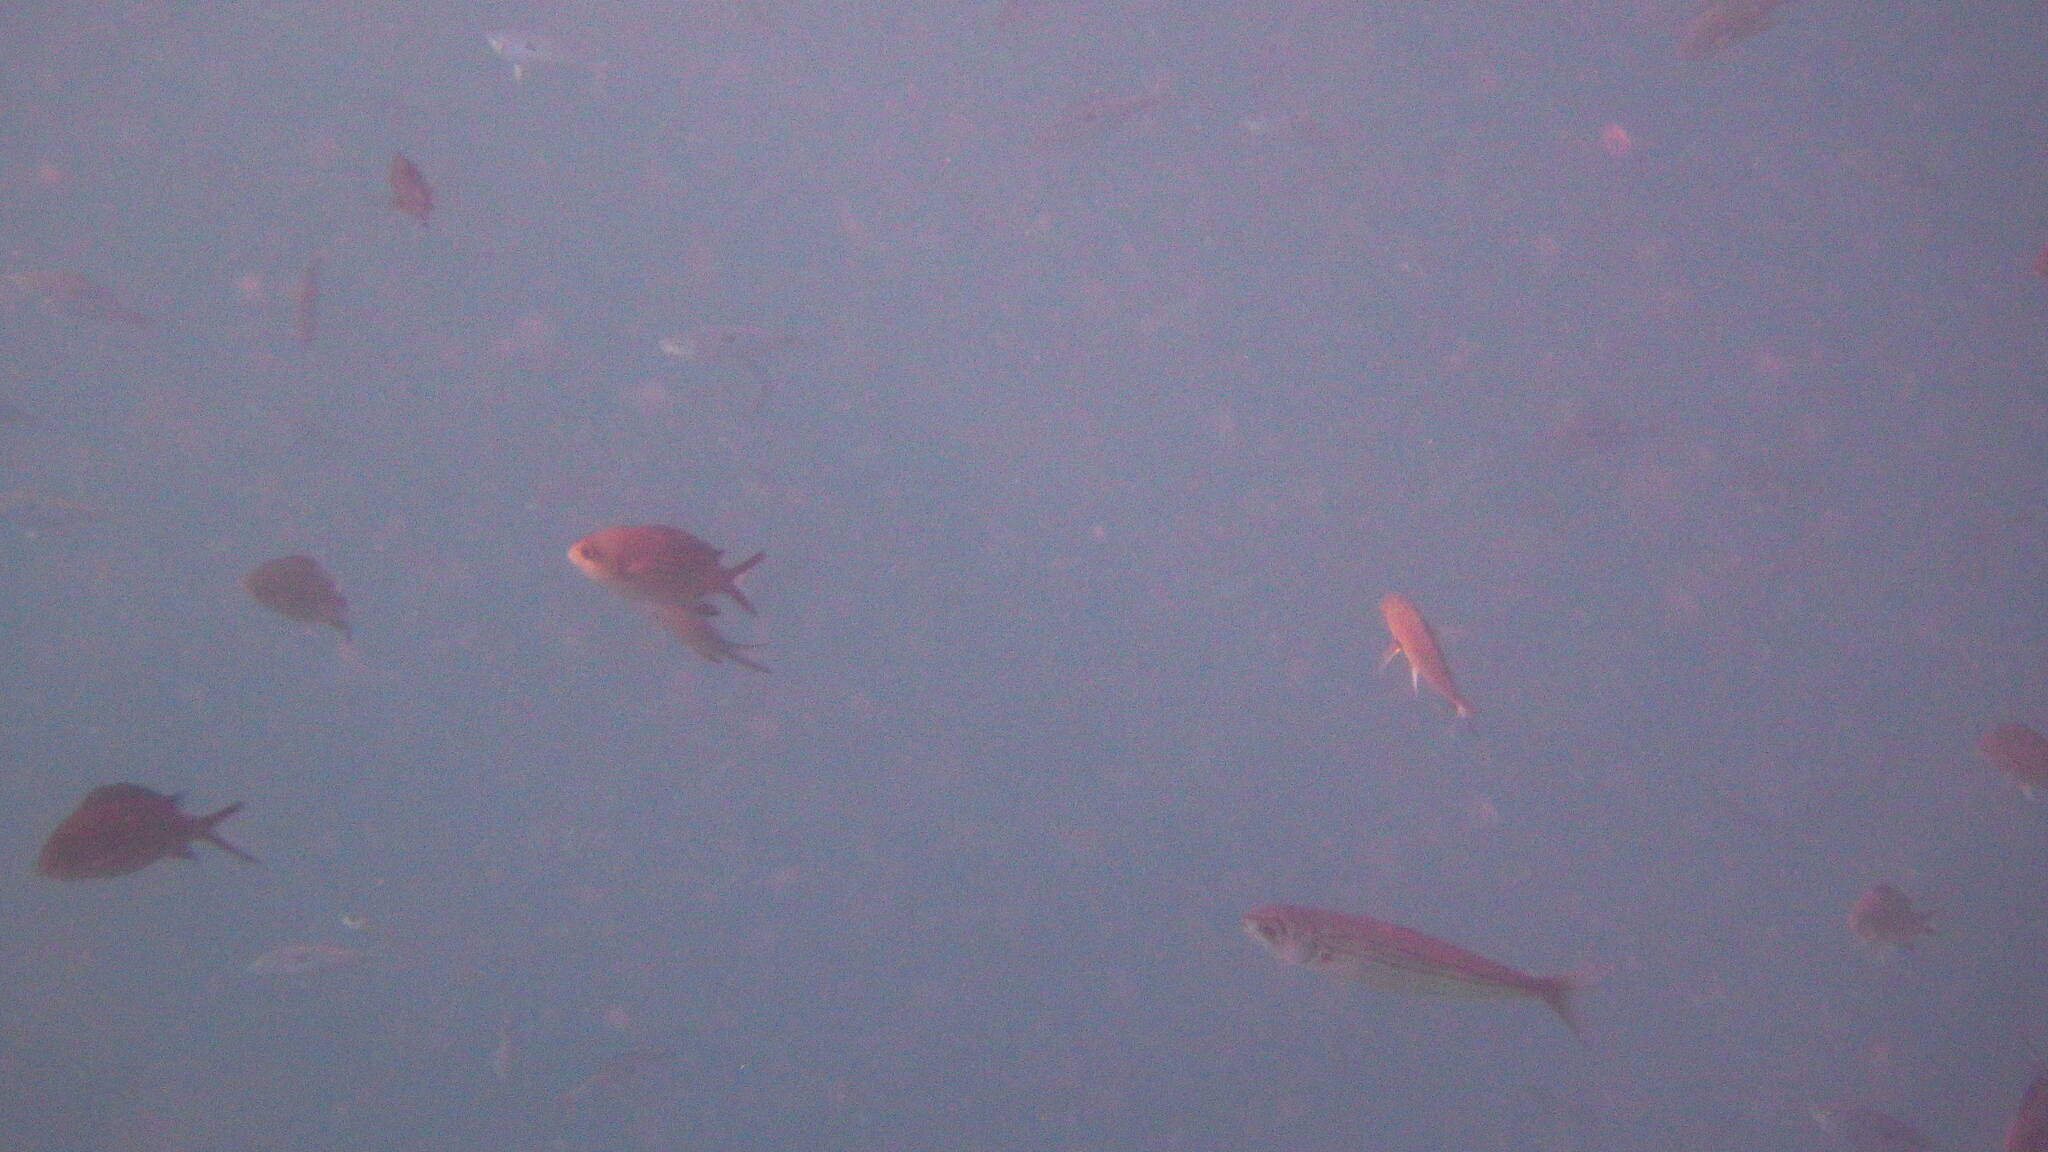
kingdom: Animalia
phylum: Chordata
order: Perciformes
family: Pomacentridae
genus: Chromis
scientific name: Chromis chromis
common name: Damselfish
